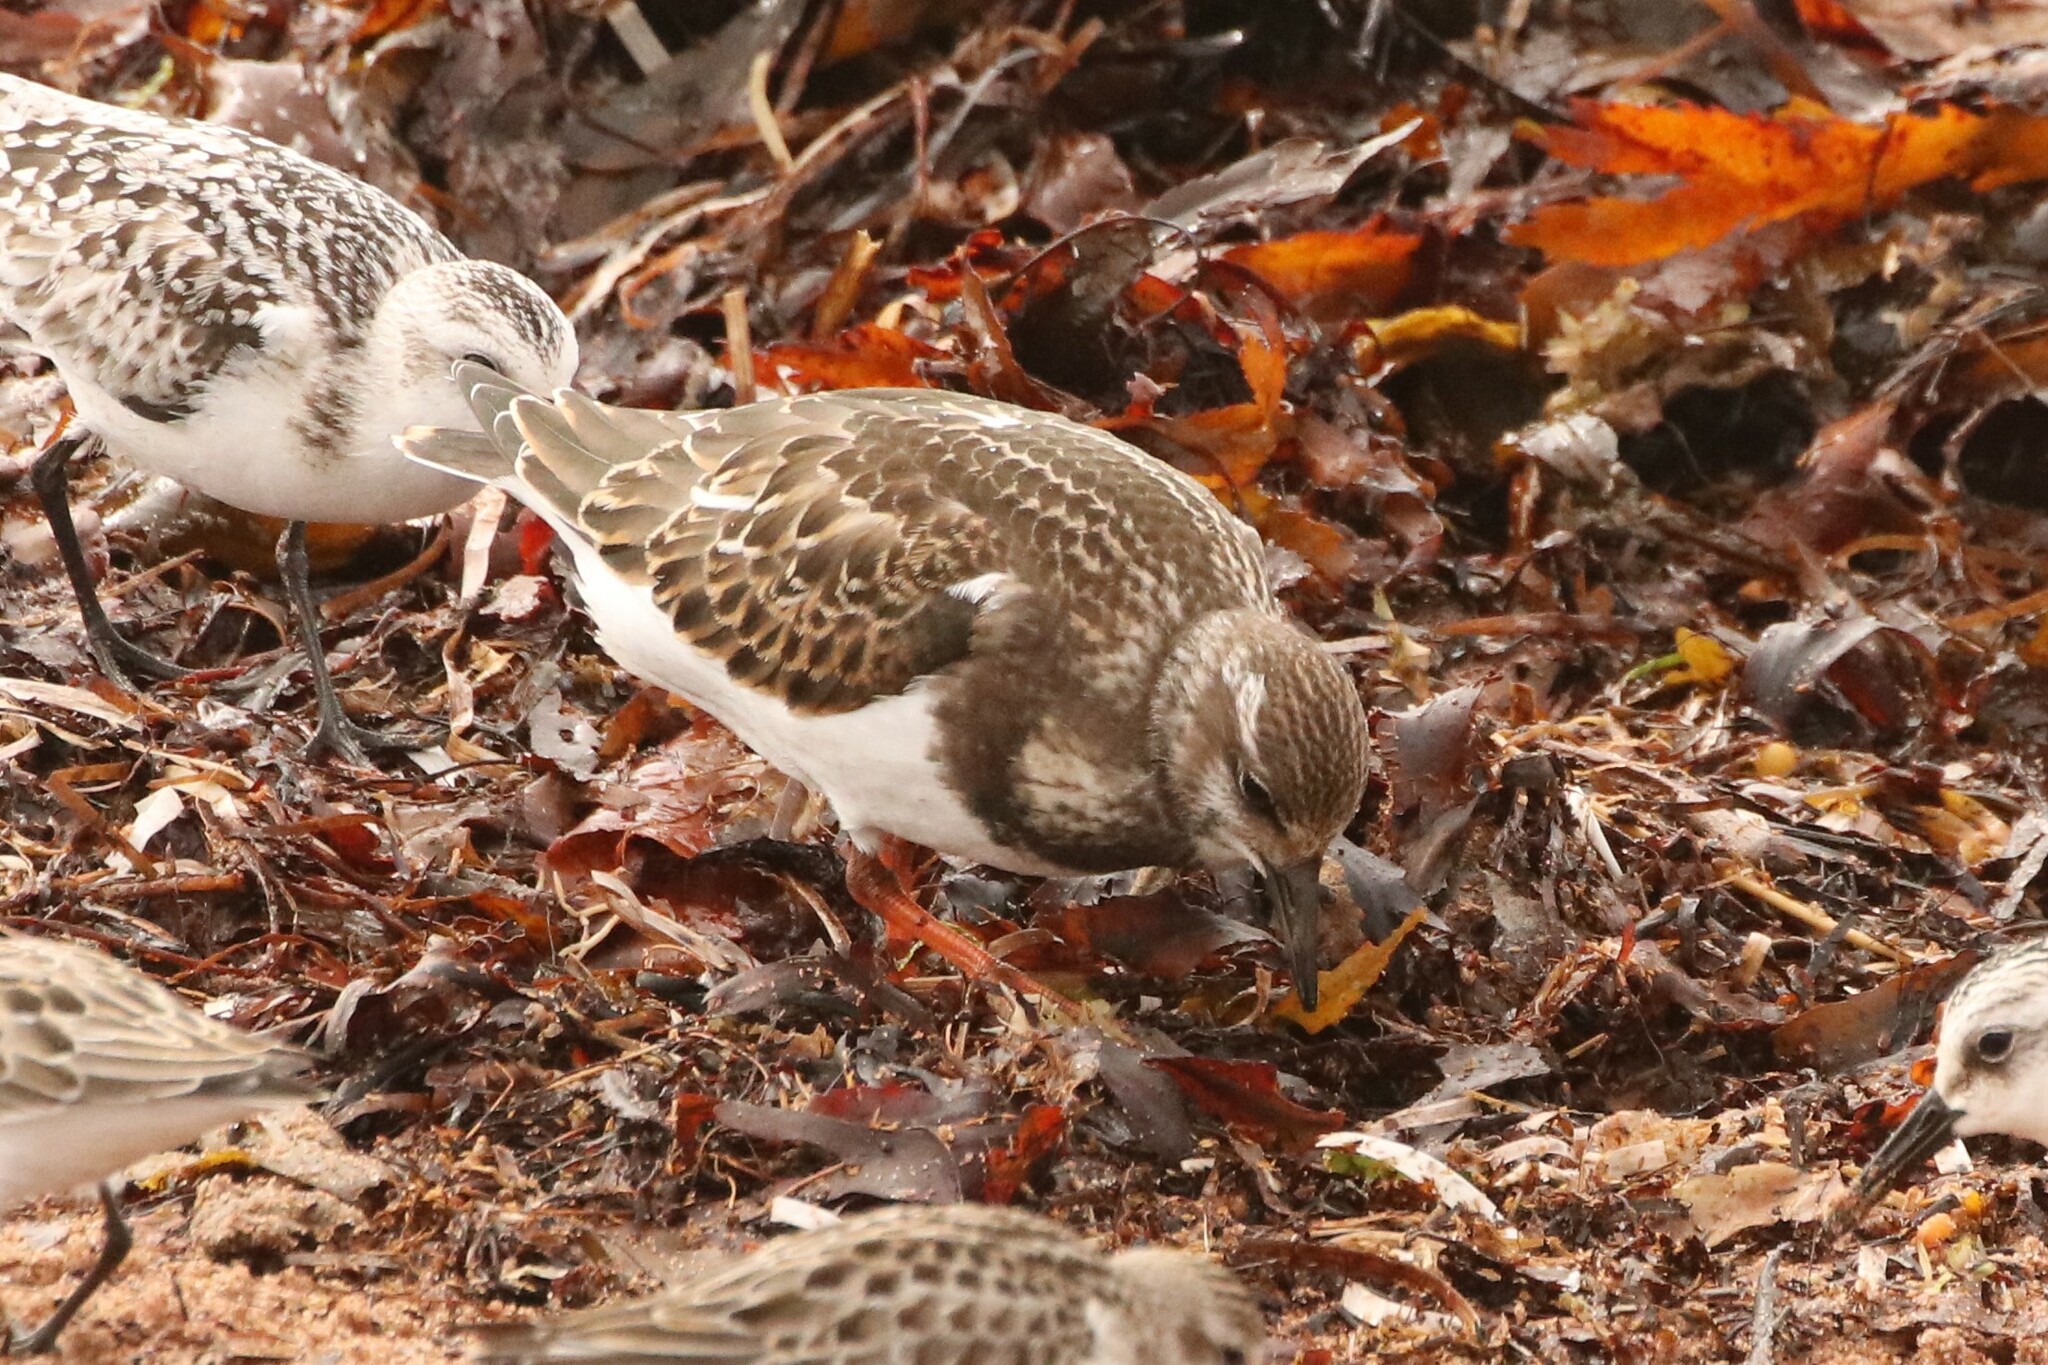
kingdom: Animalia
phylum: Chordata
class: Aves
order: Charadriiformes
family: Scolopacidae
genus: Arenaria
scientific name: Arenaria interpres
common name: Ruddy turnstone
